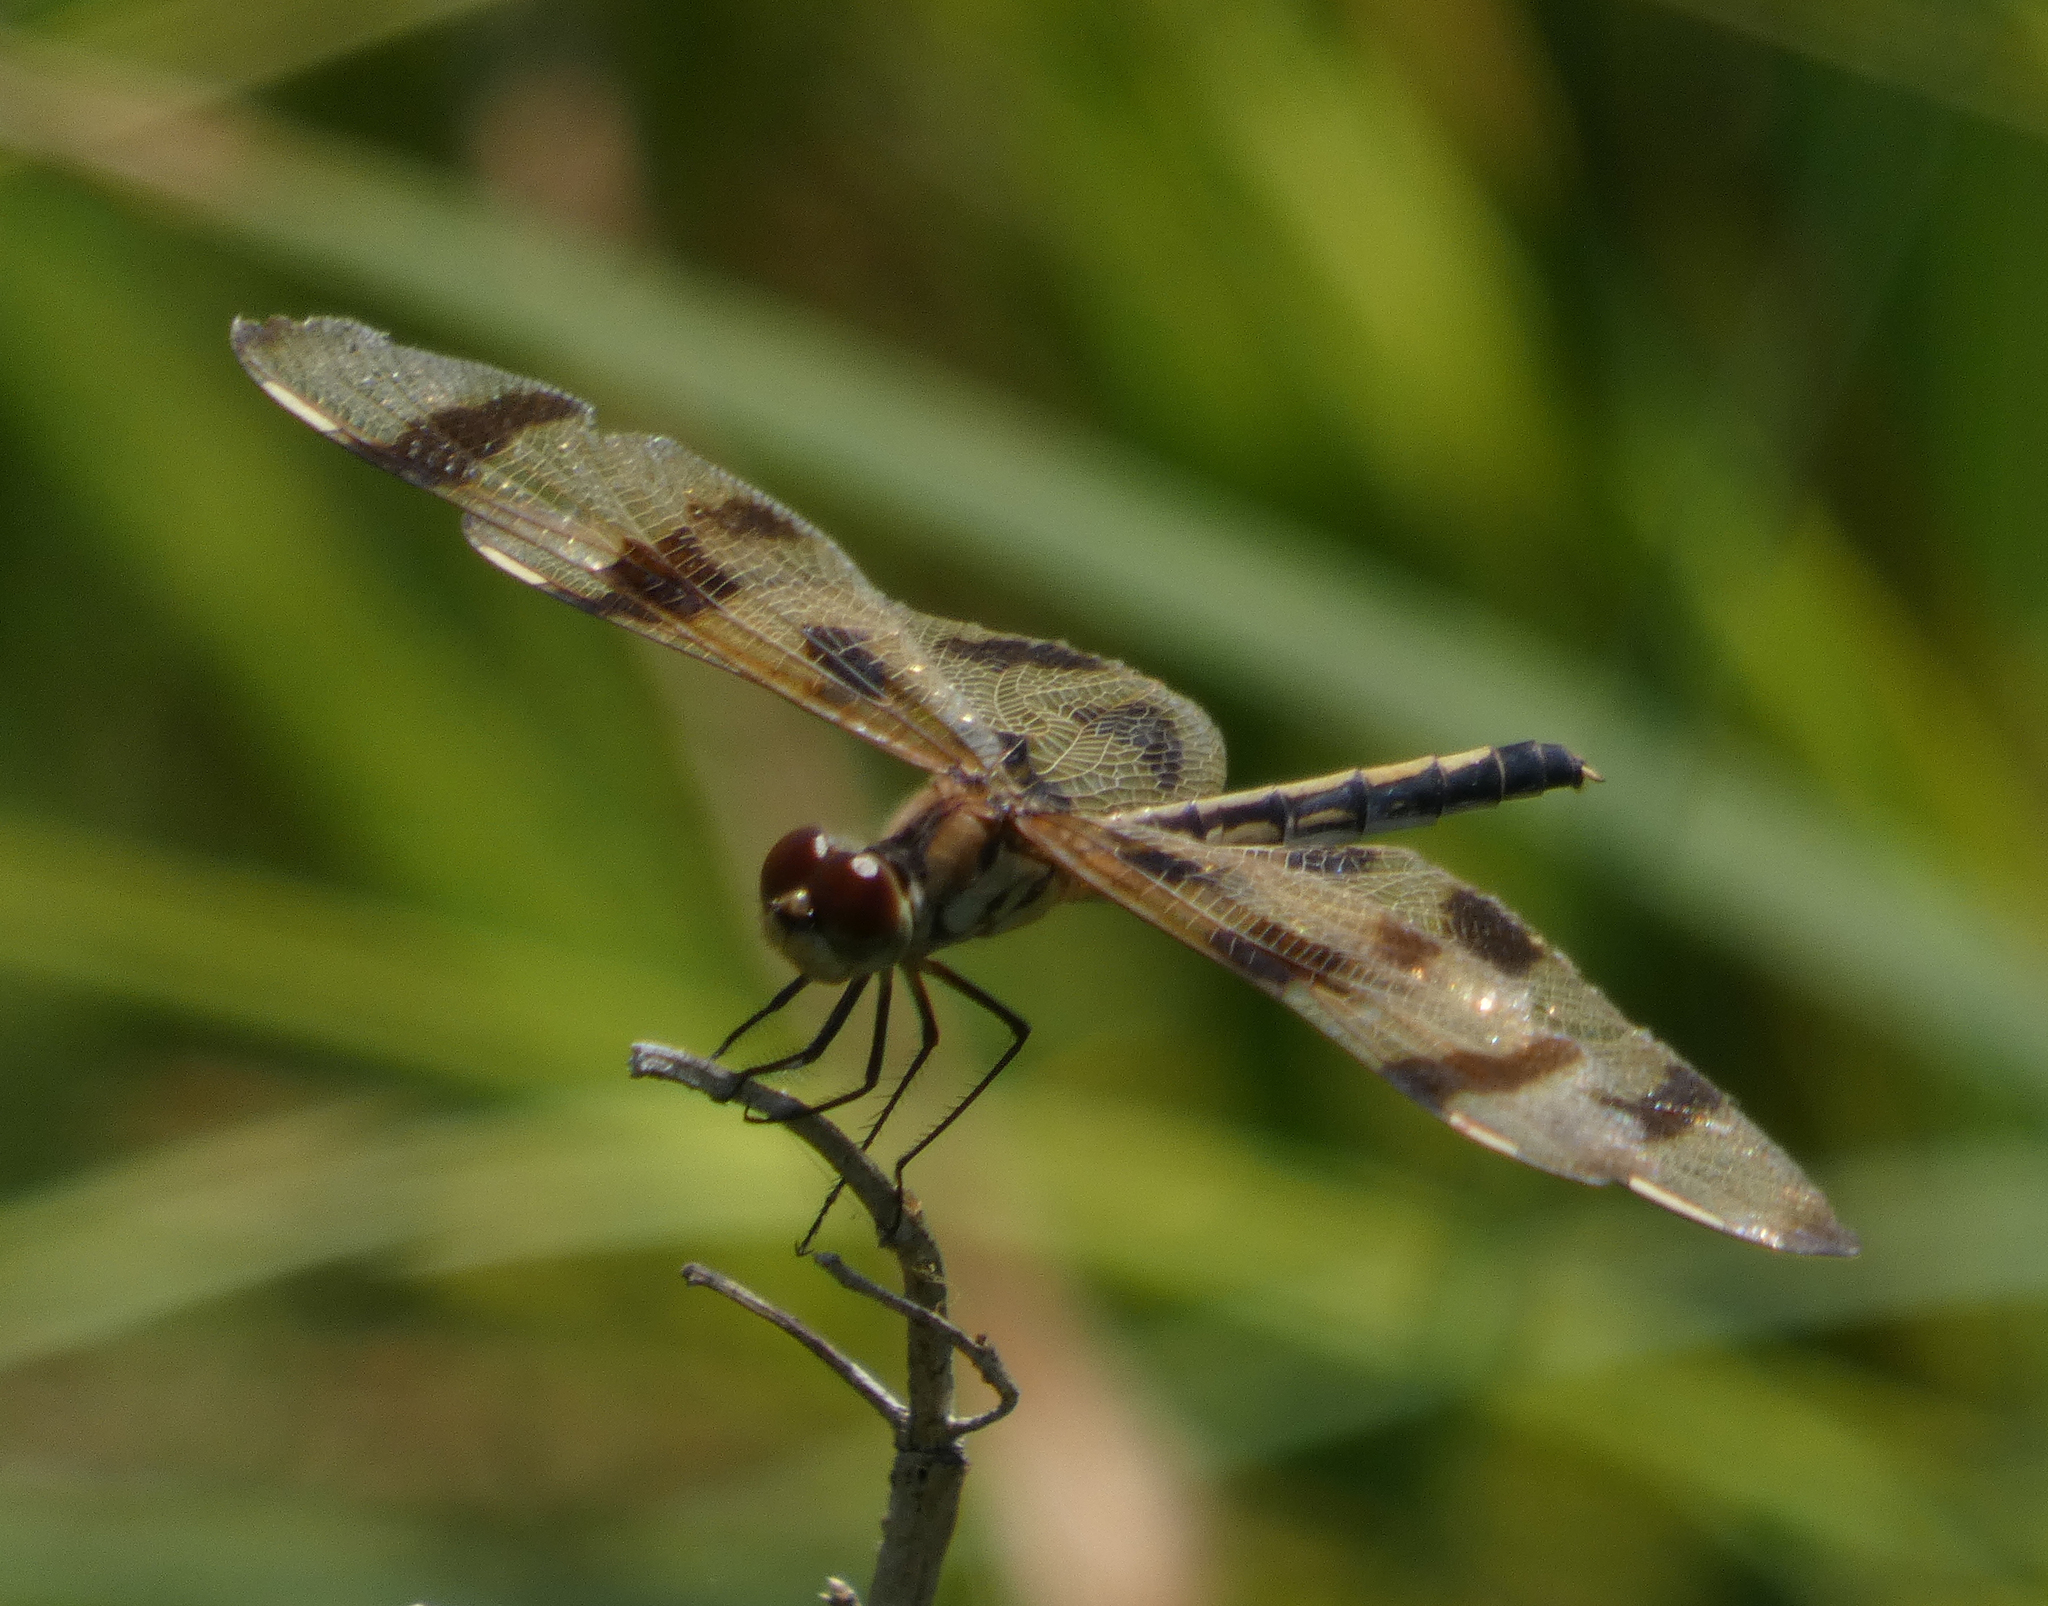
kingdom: Animalia
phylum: Arthropoda
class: Insecta
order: Odonata
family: Libellulidae
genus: Celithemis
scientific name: Celithemis eponina
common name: Halloween pennant
